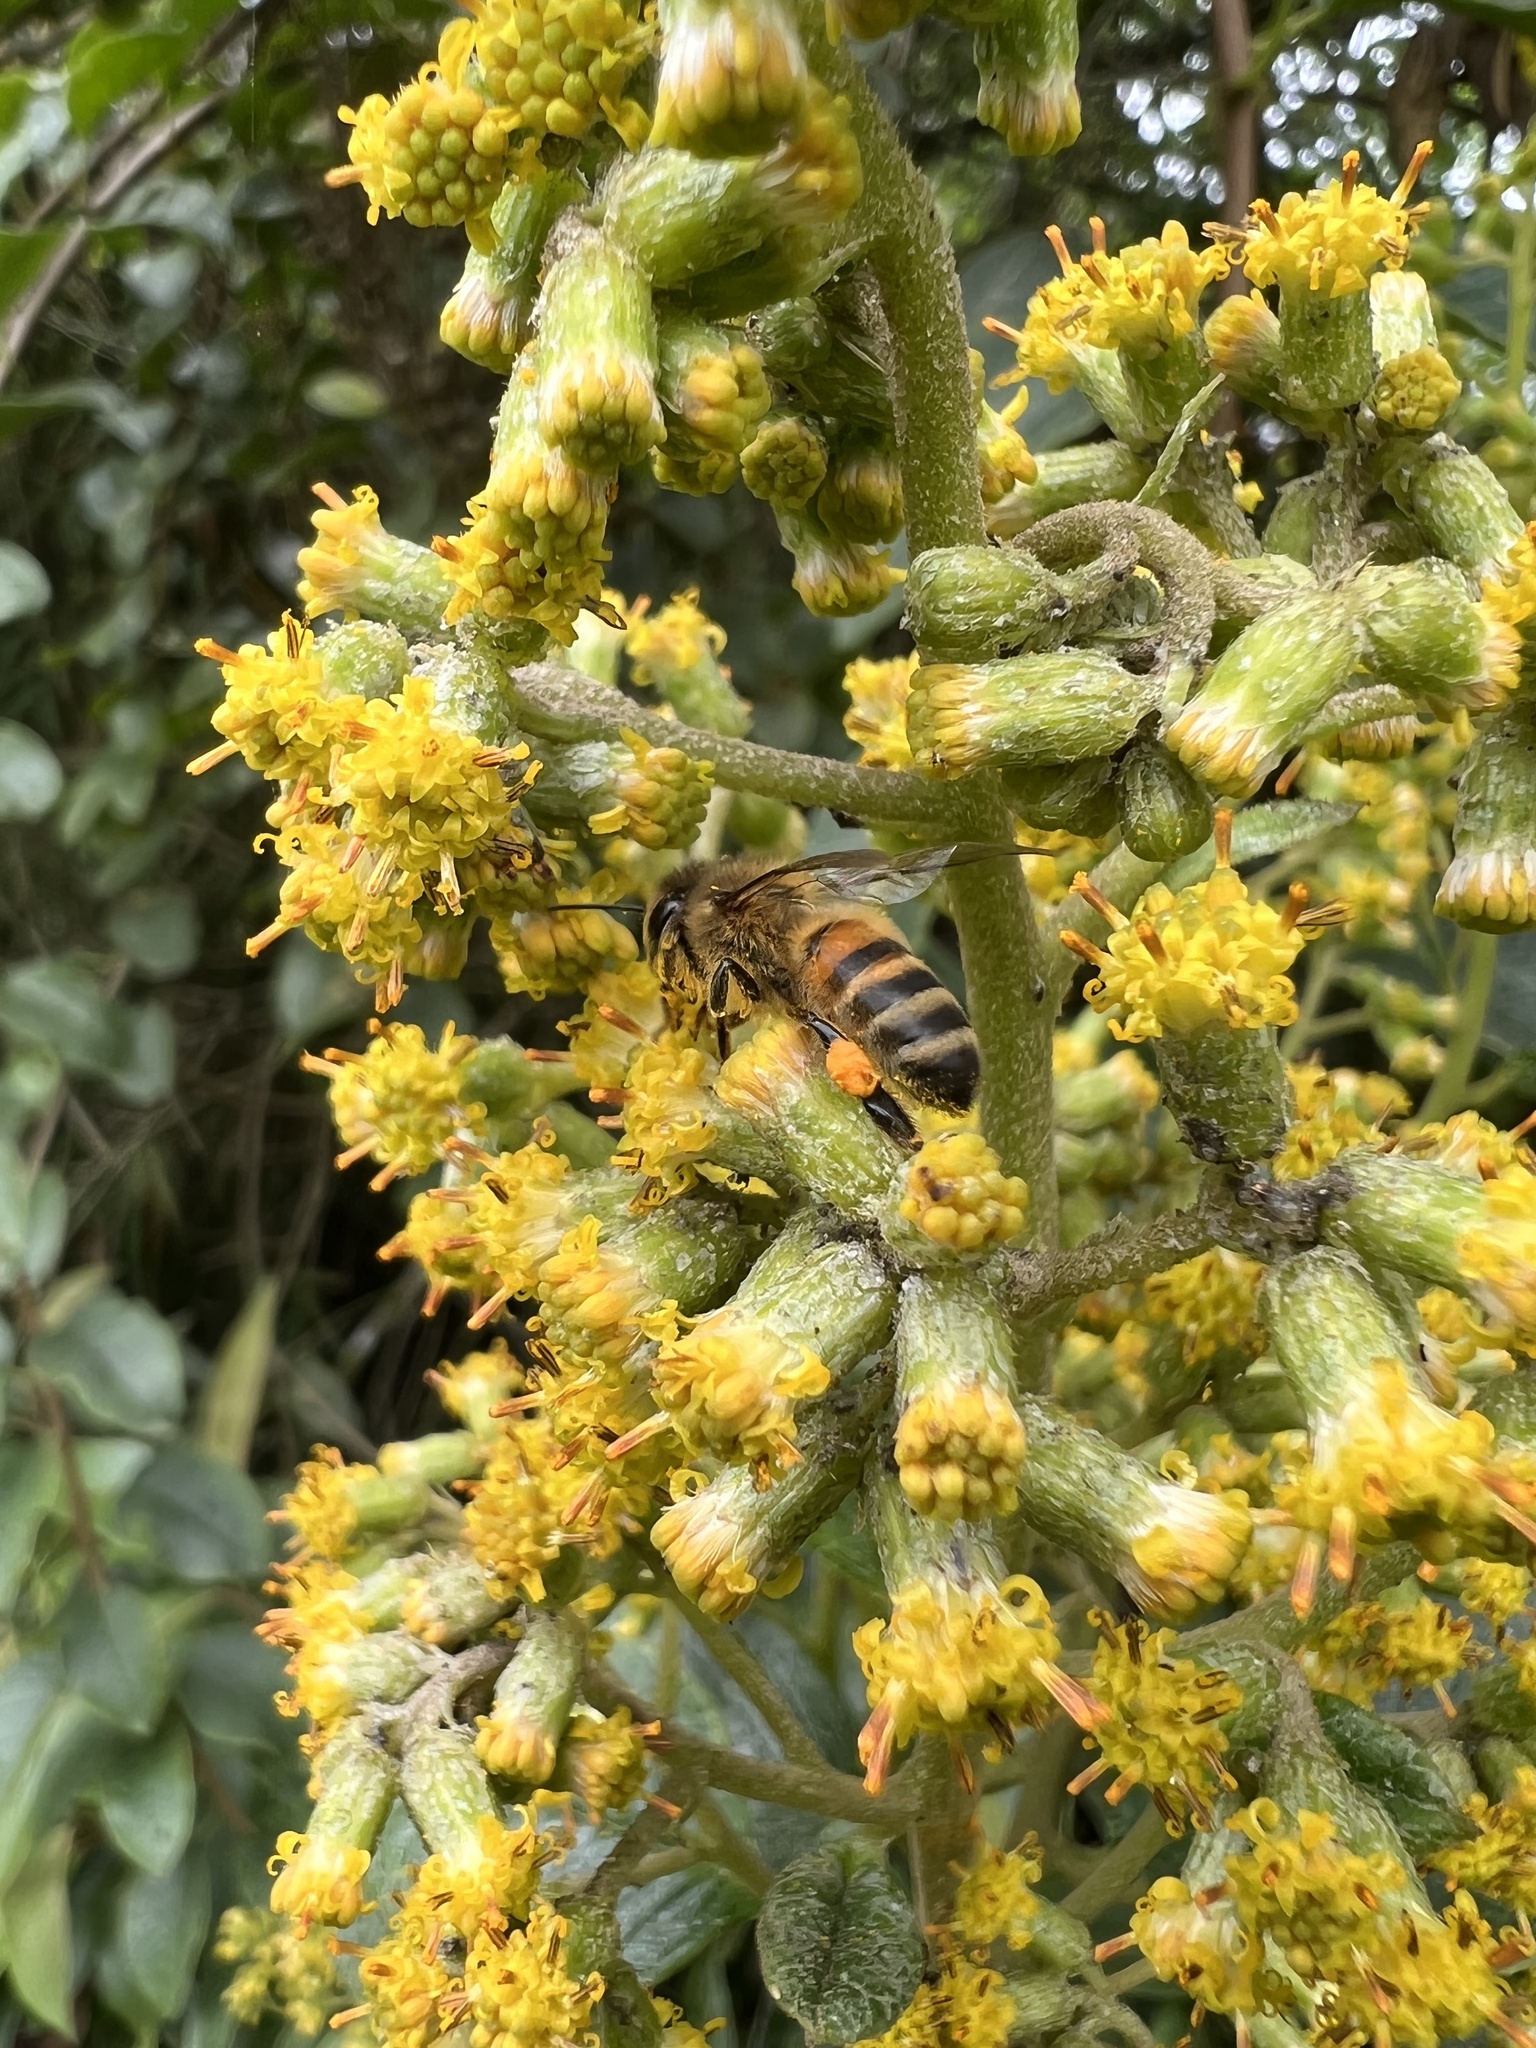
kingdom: Animalia
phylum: Arthropoda
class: Insecta
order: Hymenoptera
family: Apidae
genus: Apis
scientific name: Apis mellifera
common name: Honey bee
